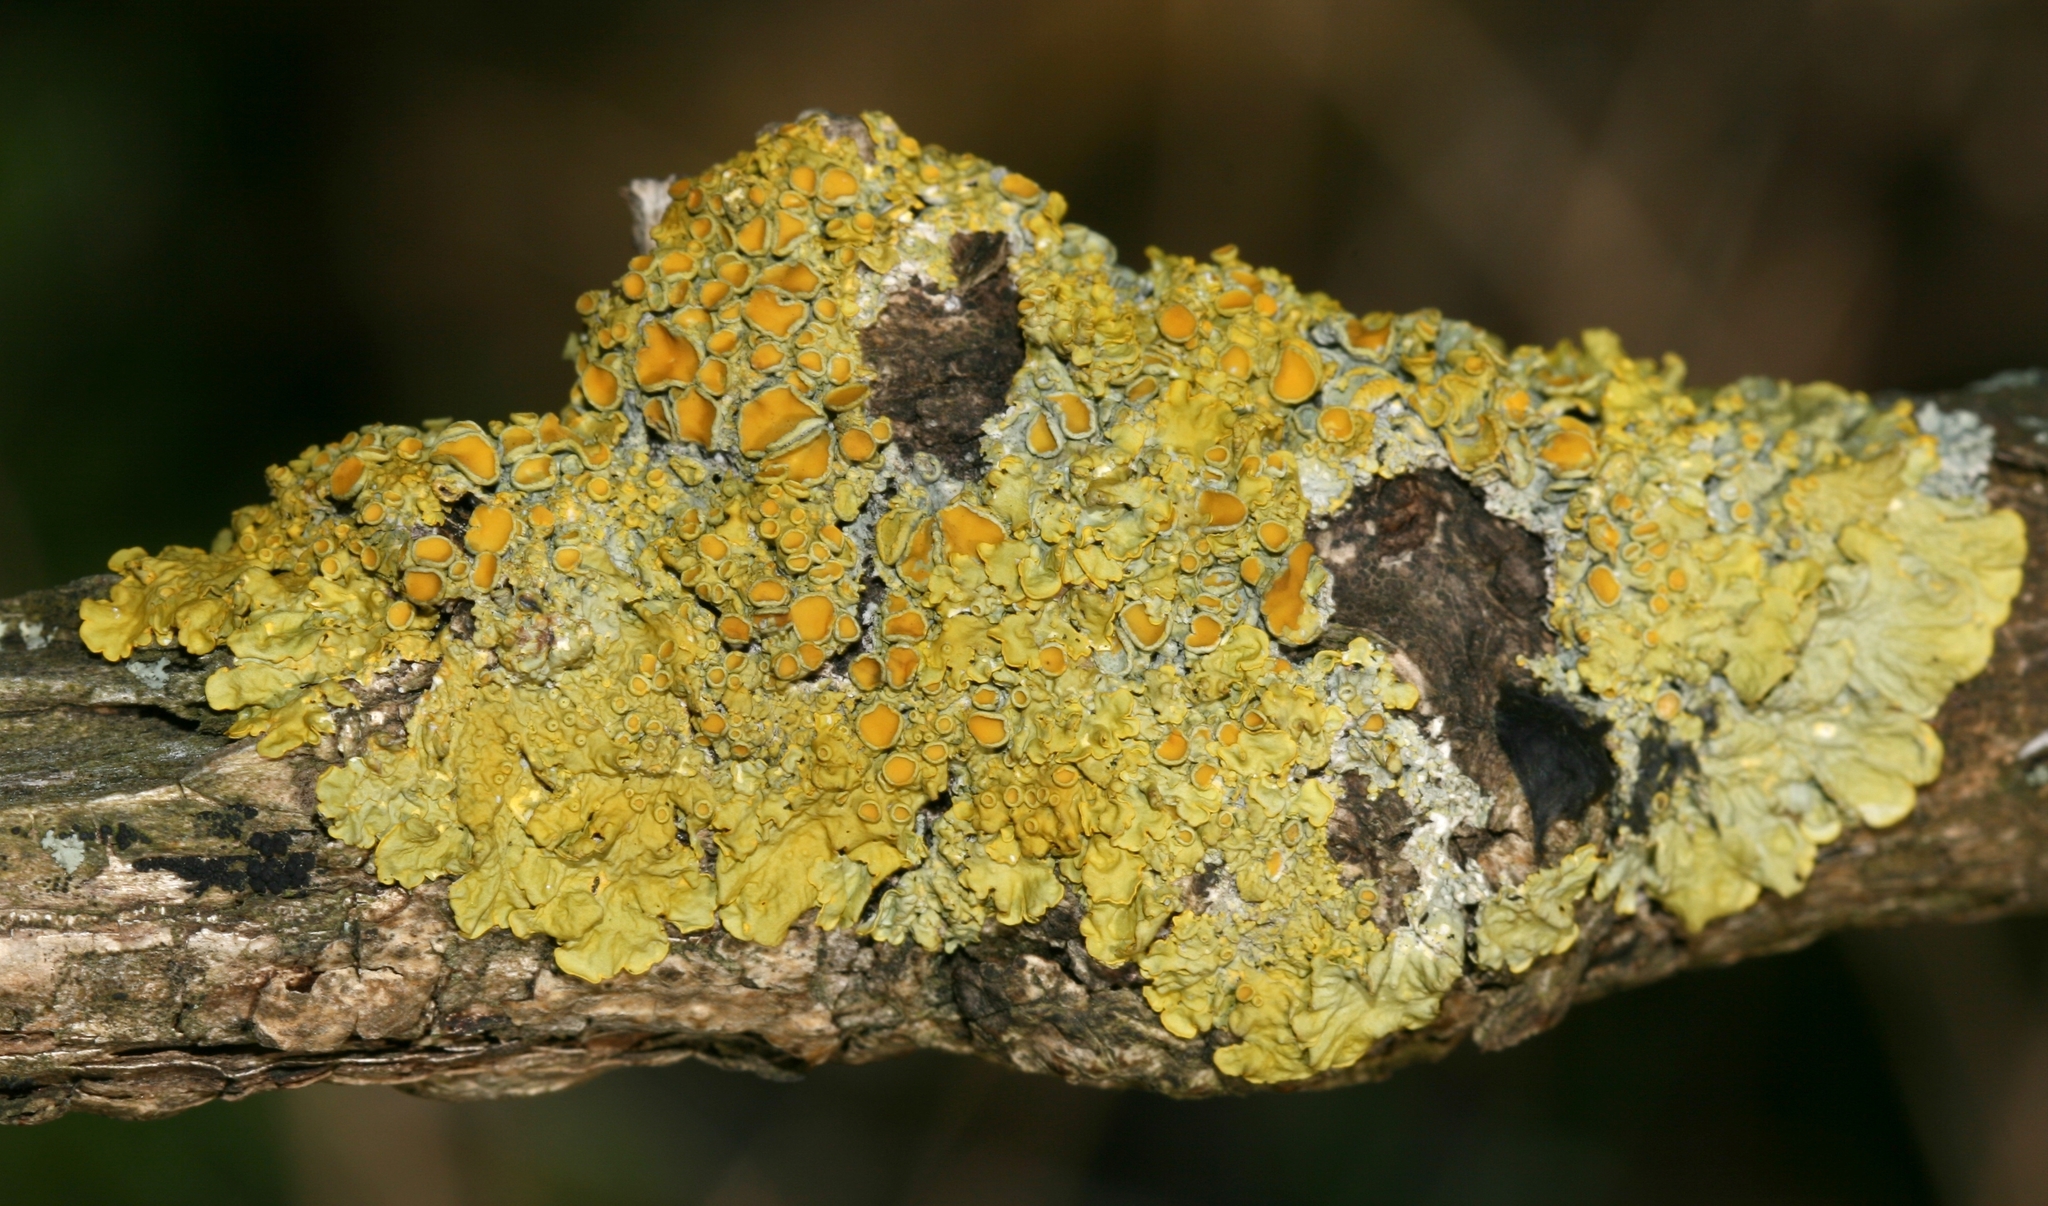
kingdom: Fungi
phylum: Ascomycota
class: Lecanoromycetes
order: Teloschistales
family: Teloschistaceae
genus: Xanthoria
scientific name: Xanthoria parietina
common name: Common orange lichen
